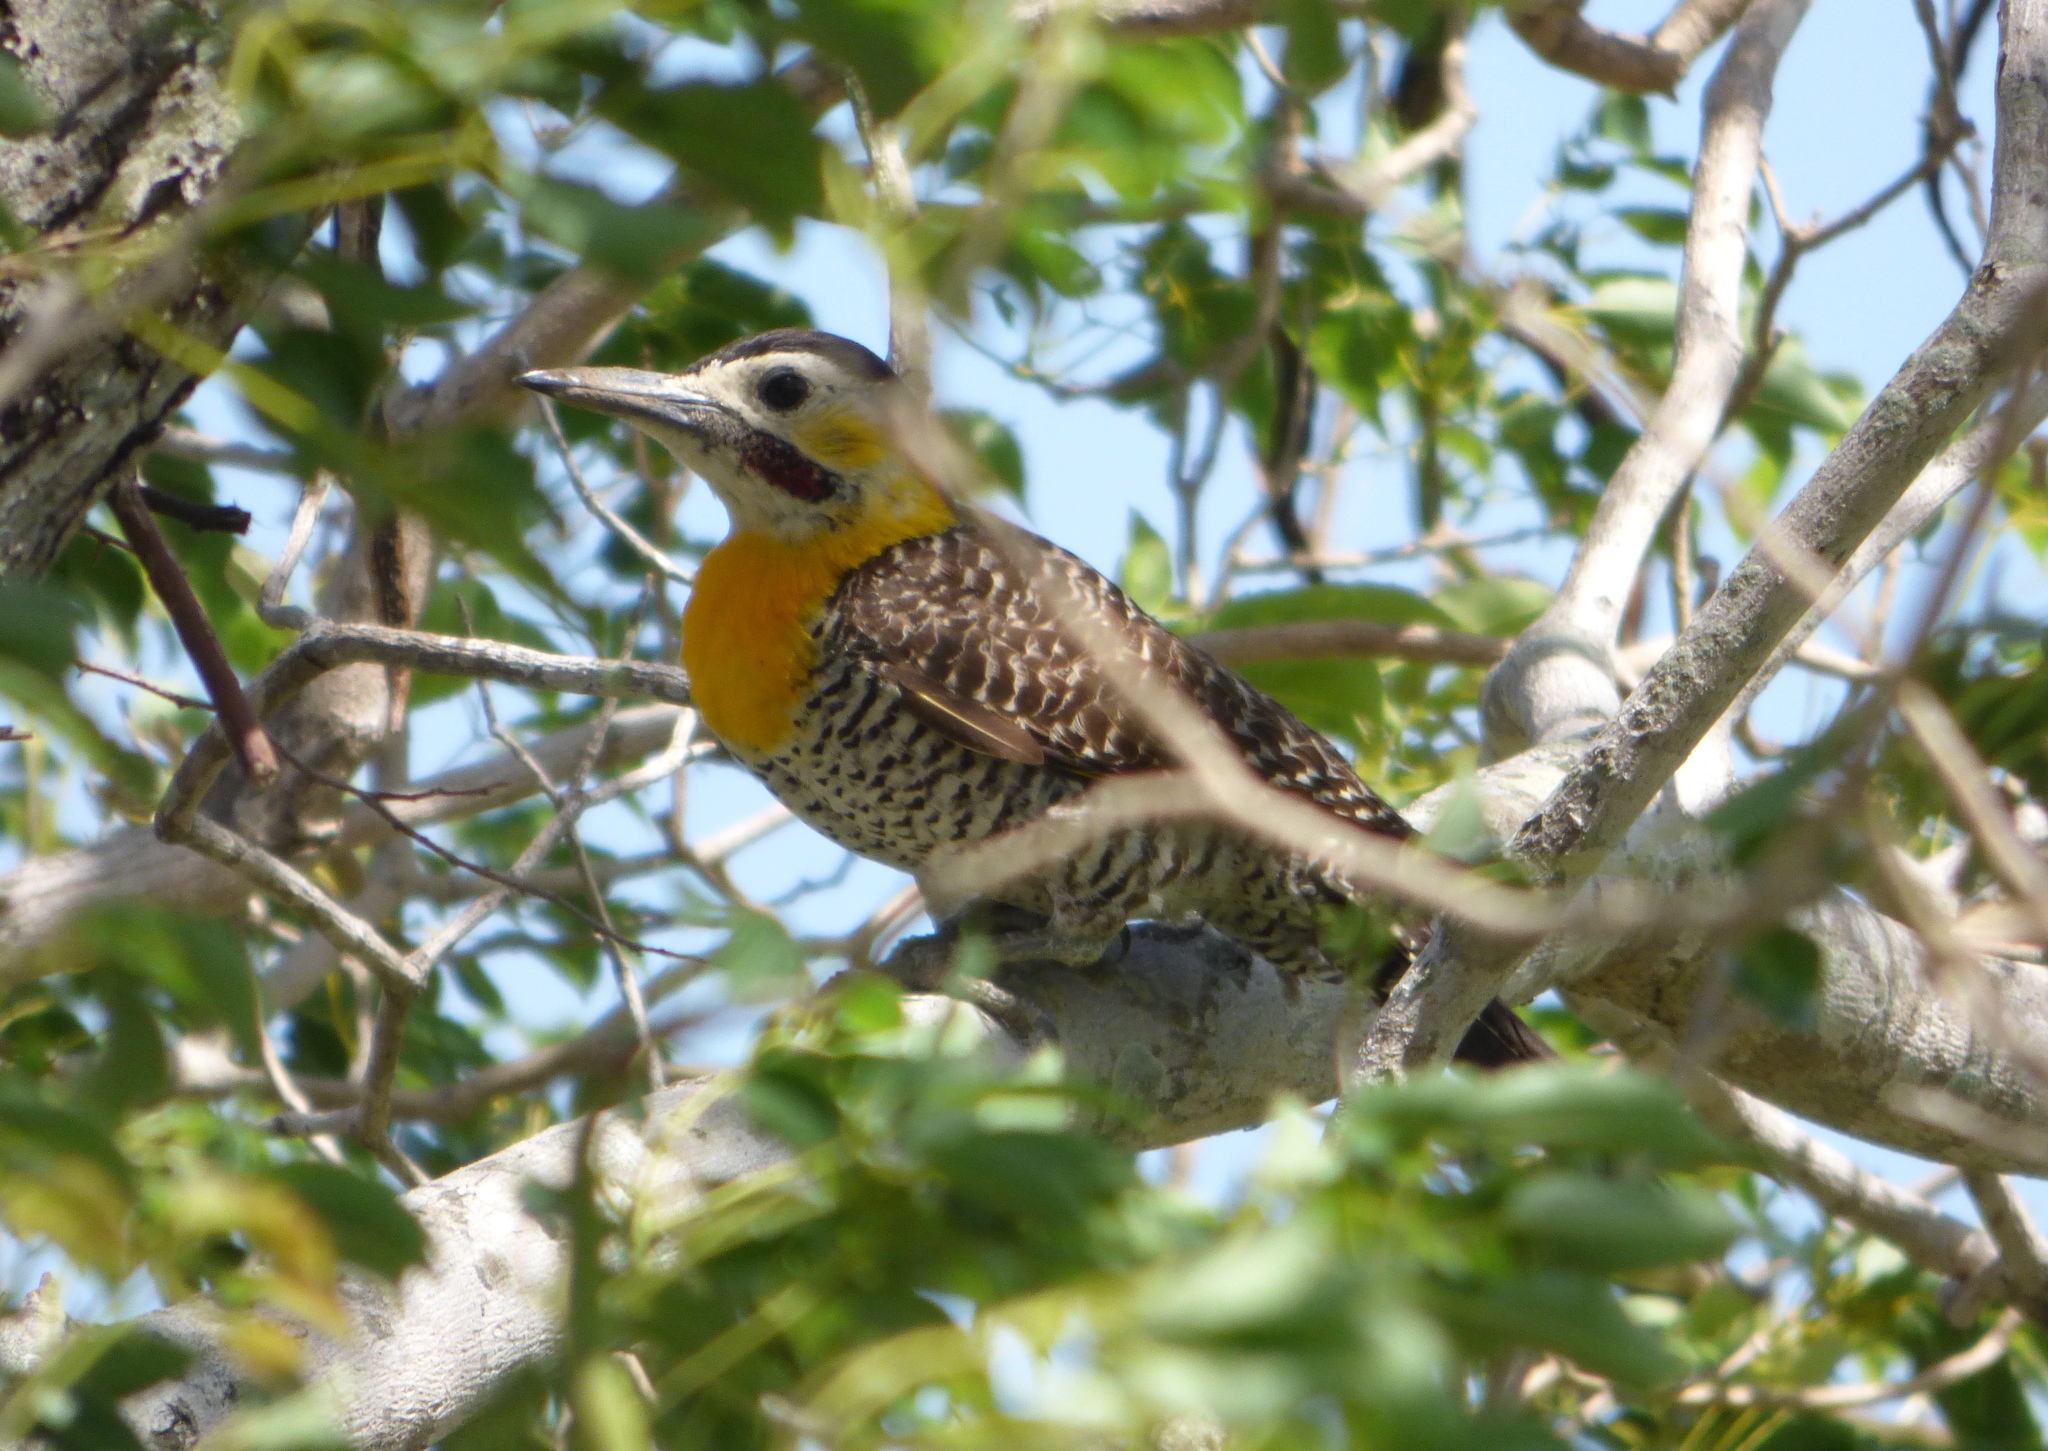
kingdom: Animalia
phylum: Chordata
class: Aves
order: Piciformes
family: Picidae
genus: Colaptes
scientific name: Colaptes campestris
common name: Campo flicker
